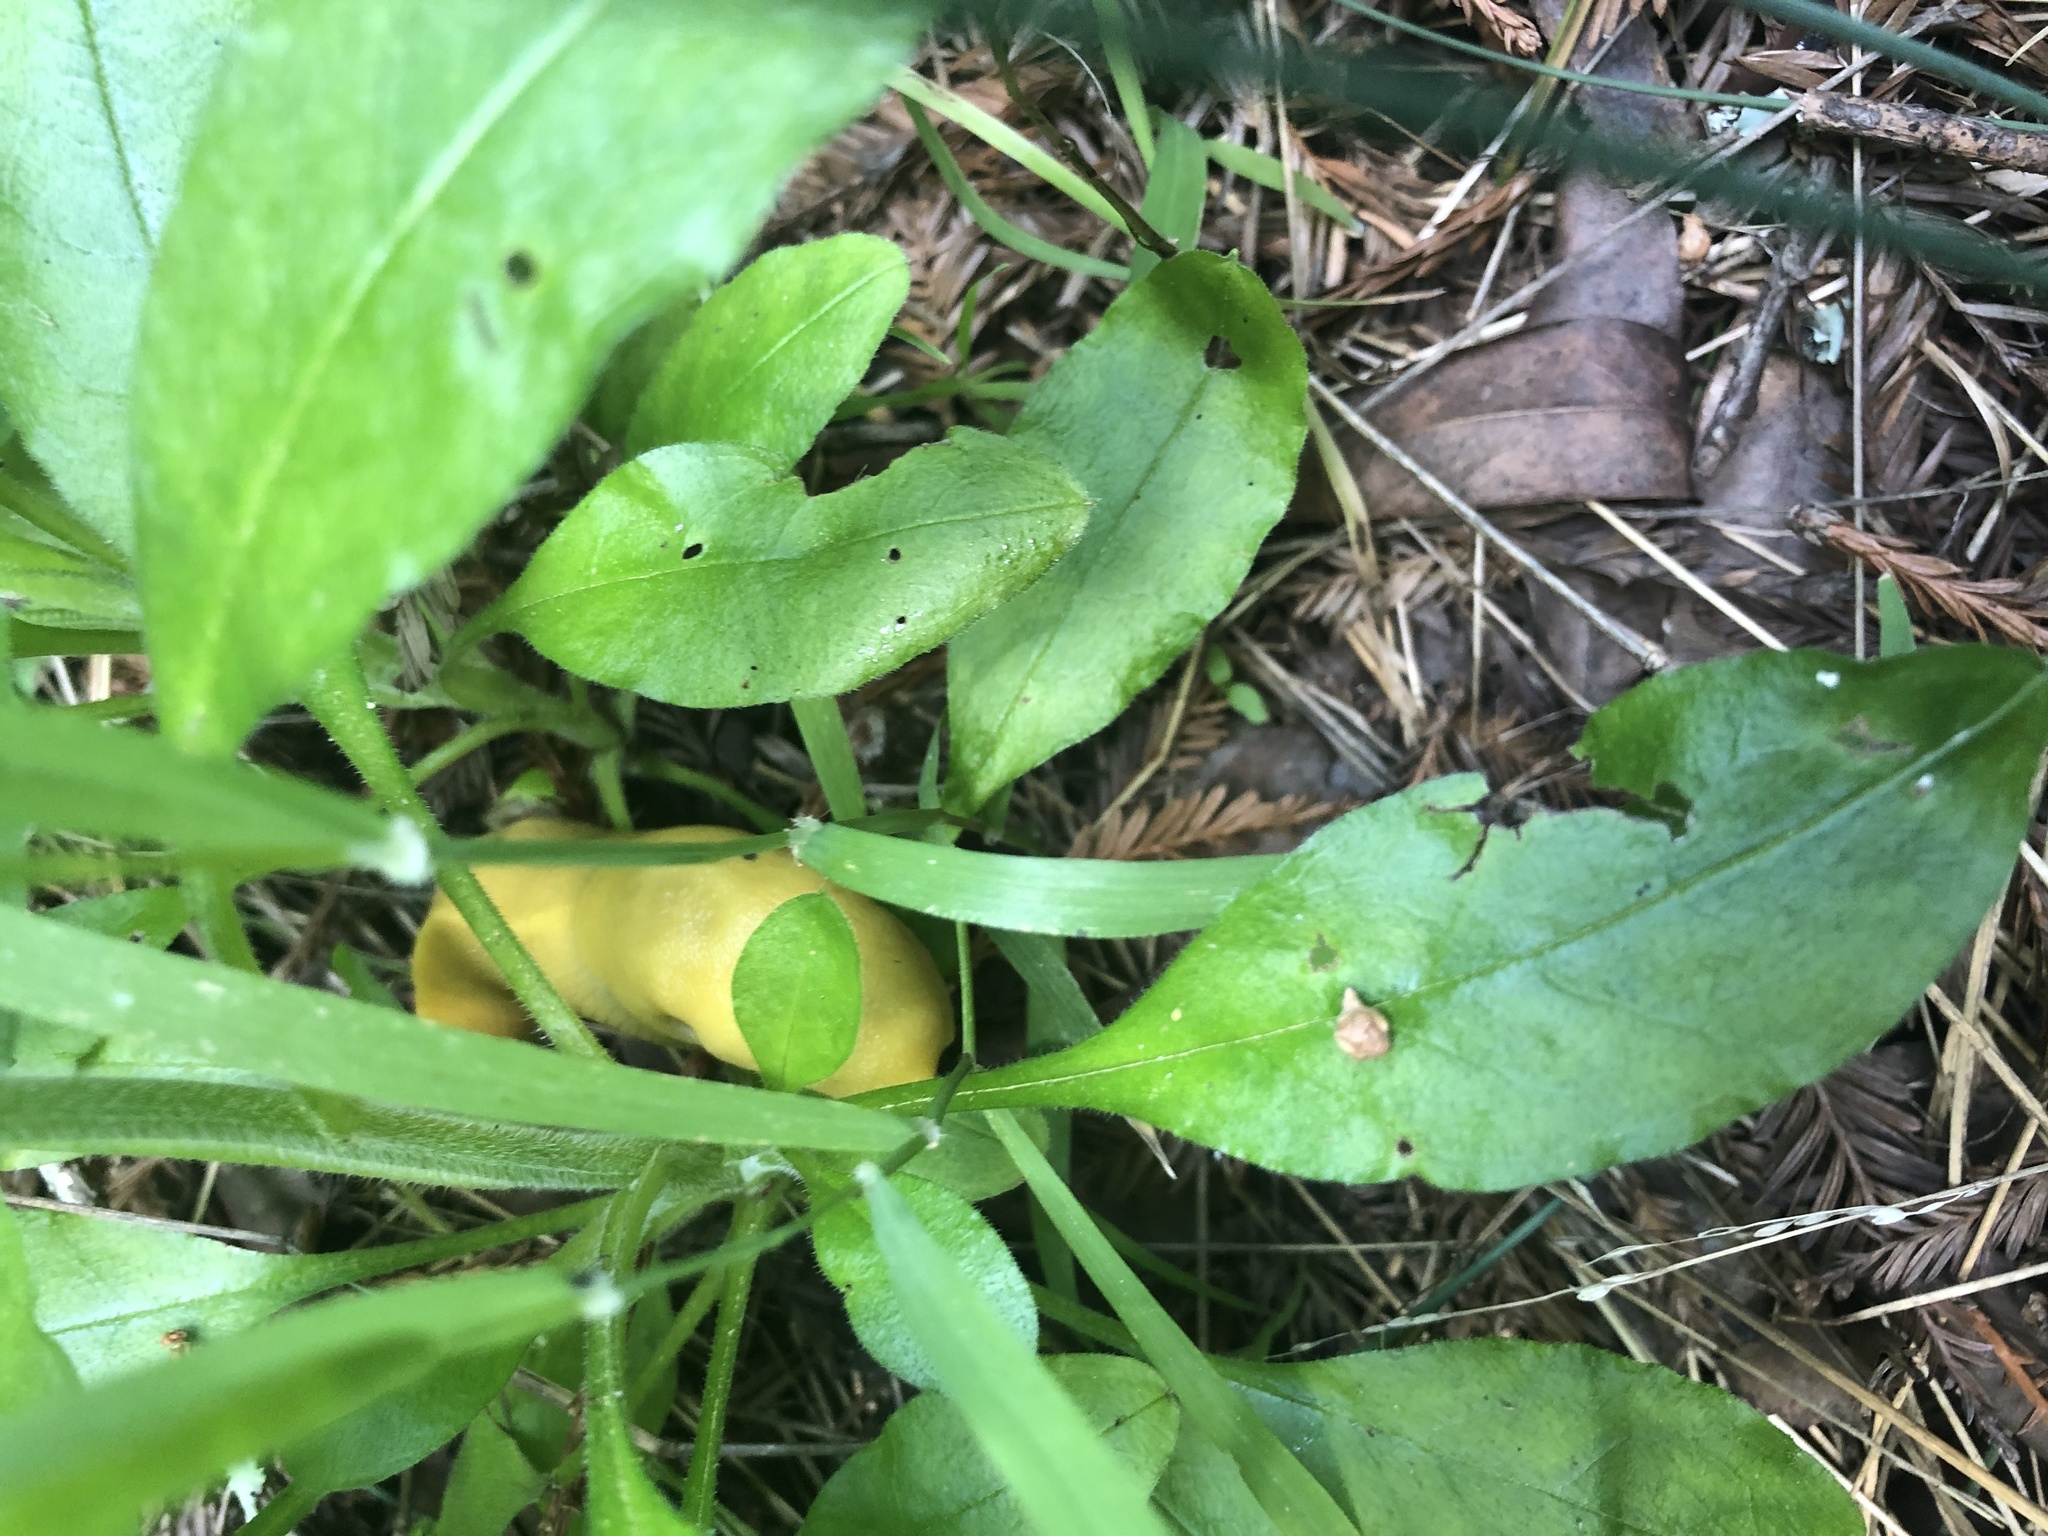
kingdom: Animalia
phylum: Mollusca
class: Gastropoda
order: Stylommatophora
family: Ariolimacidae
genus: Ariolimax
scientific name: Ariolimax dolichophallus
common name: Slender banana slug
